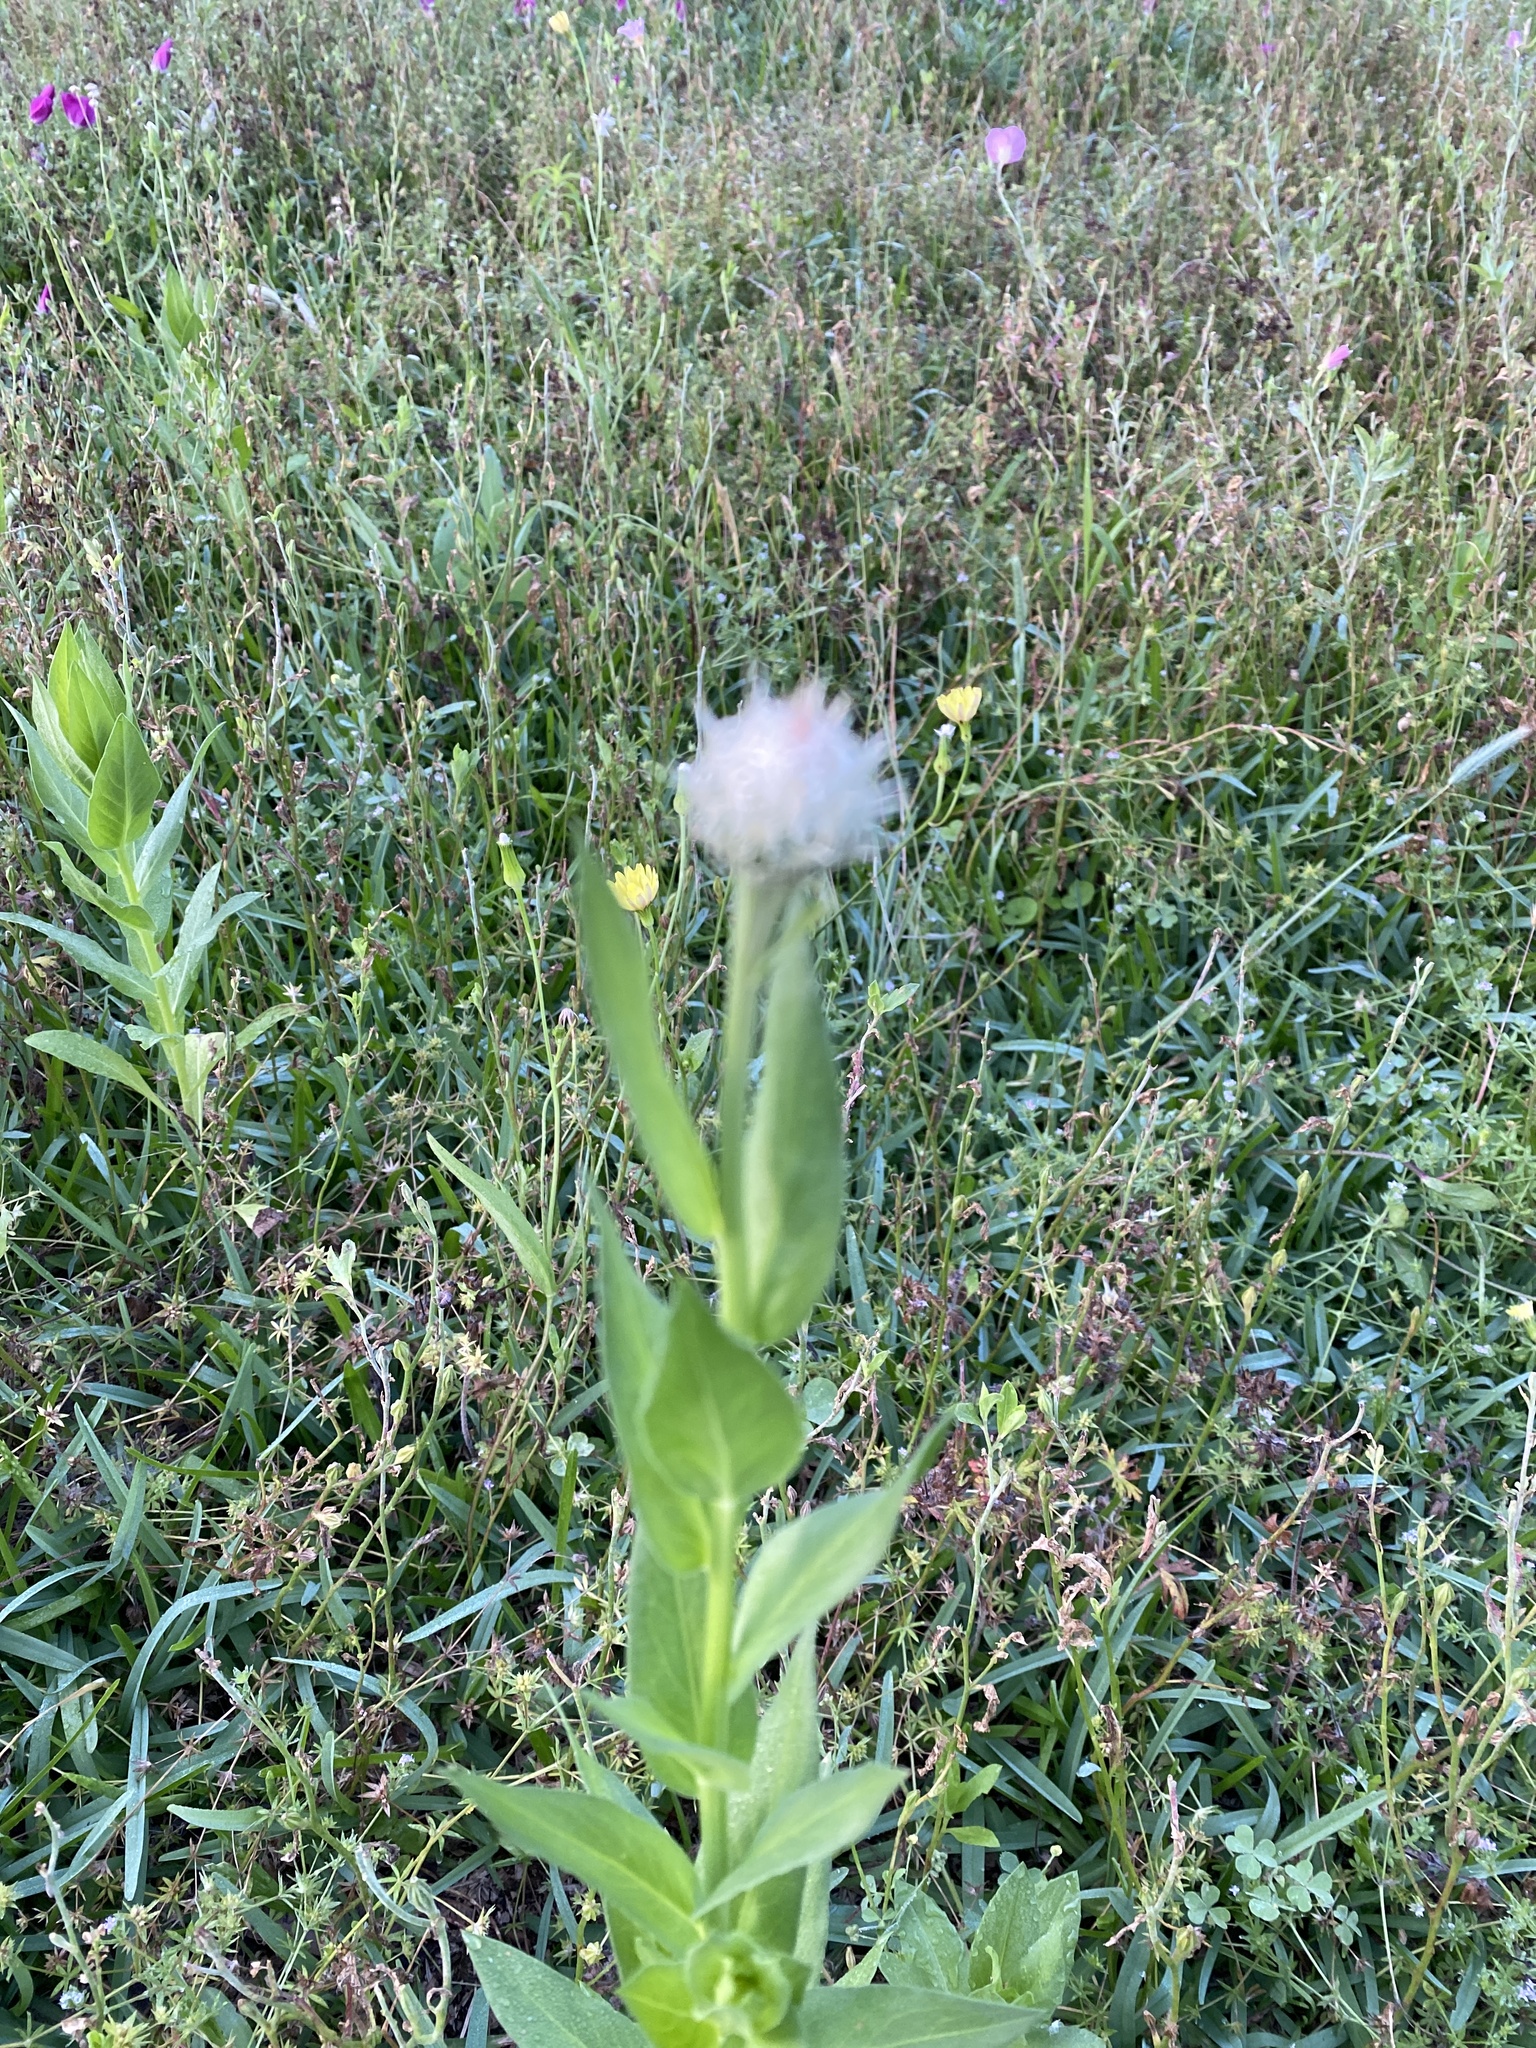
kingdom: Plantae
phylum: Tracheophyta
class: Magnoliopsida
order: Asterales
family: Asteraceae
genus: Plectocephalus
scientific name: Plectocephalus americanus
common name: American basket-flower
